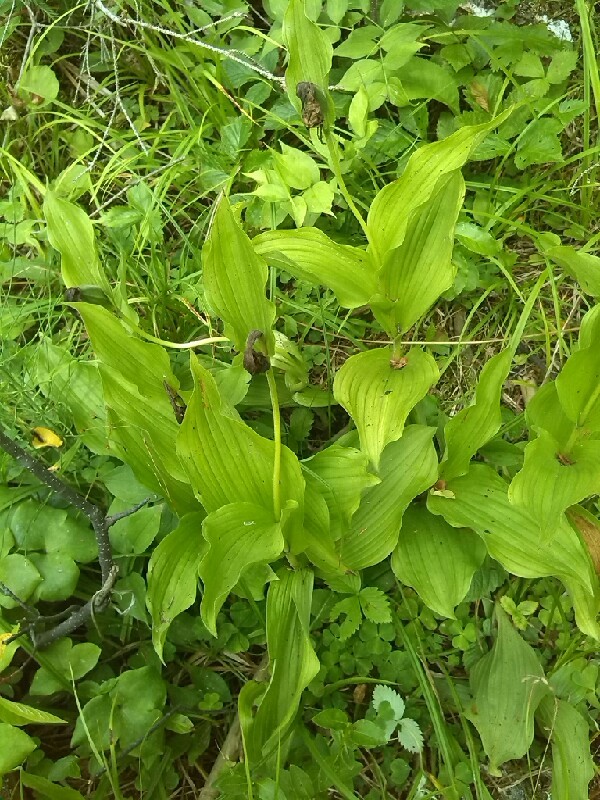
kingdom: Plantae
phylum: Tracheophyta
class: Liliopsida
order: Asparagales
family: Orchidaceae
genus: Cypripedium
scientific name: Cypripedium calceolus
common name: Lady's-slipper
